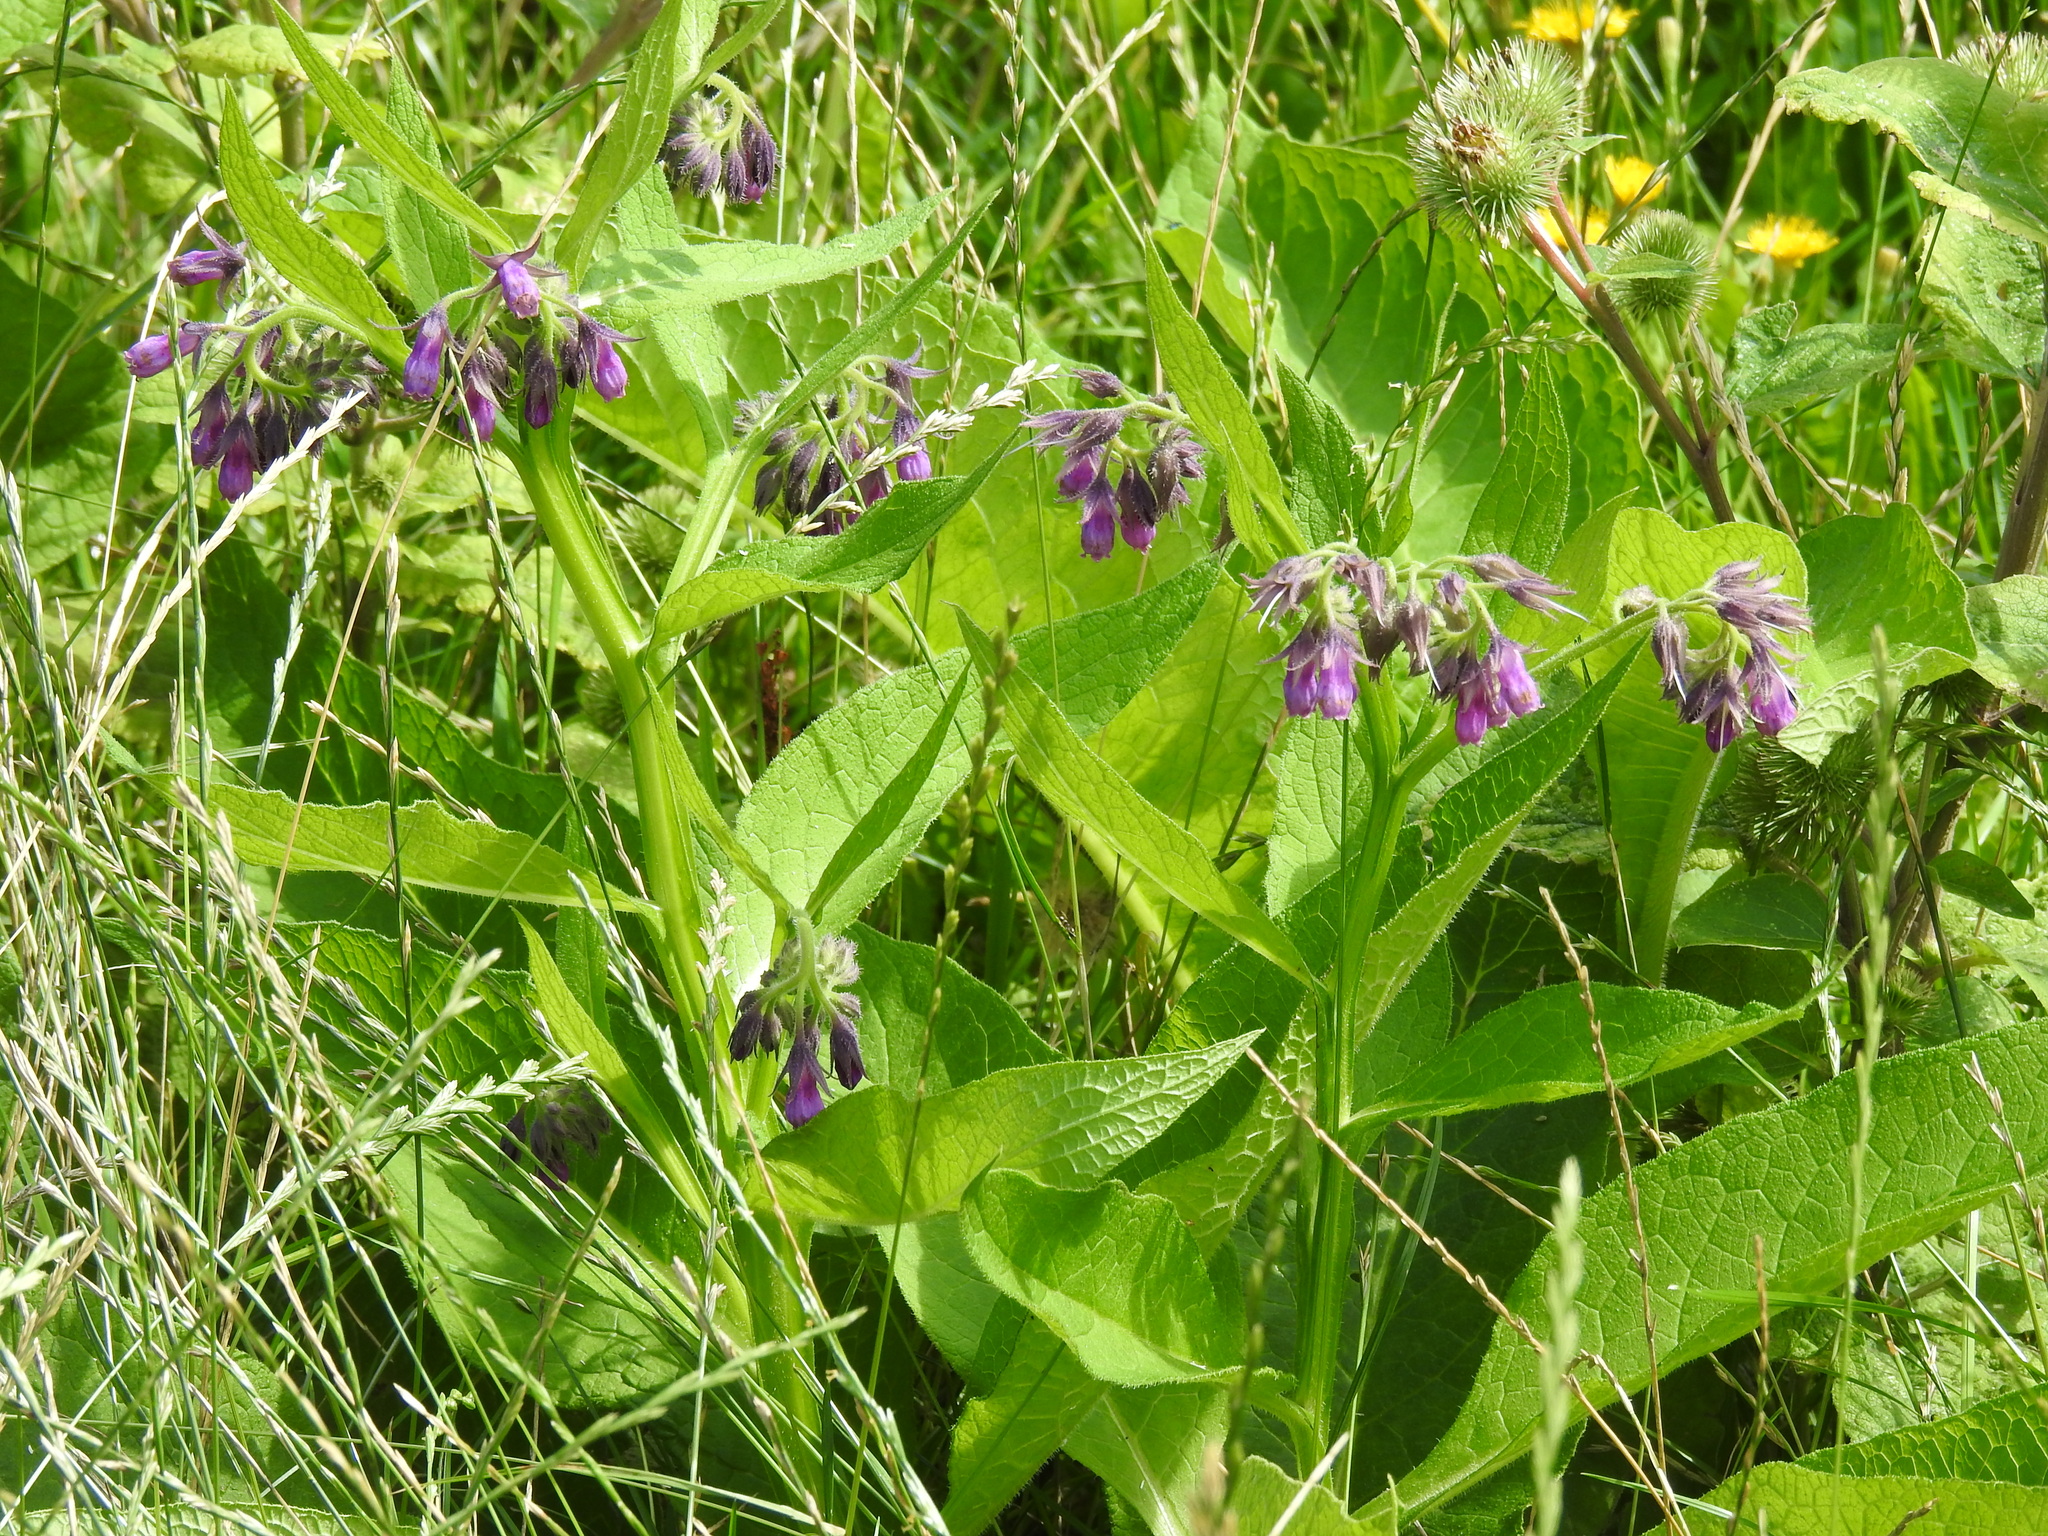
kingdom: Plantae
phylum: Tracheophyta
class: Magnoliopsida
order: Boraginales
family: Boraginaceae
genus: Symphytum
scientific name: Symphytum officinale
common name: Common comfrey
